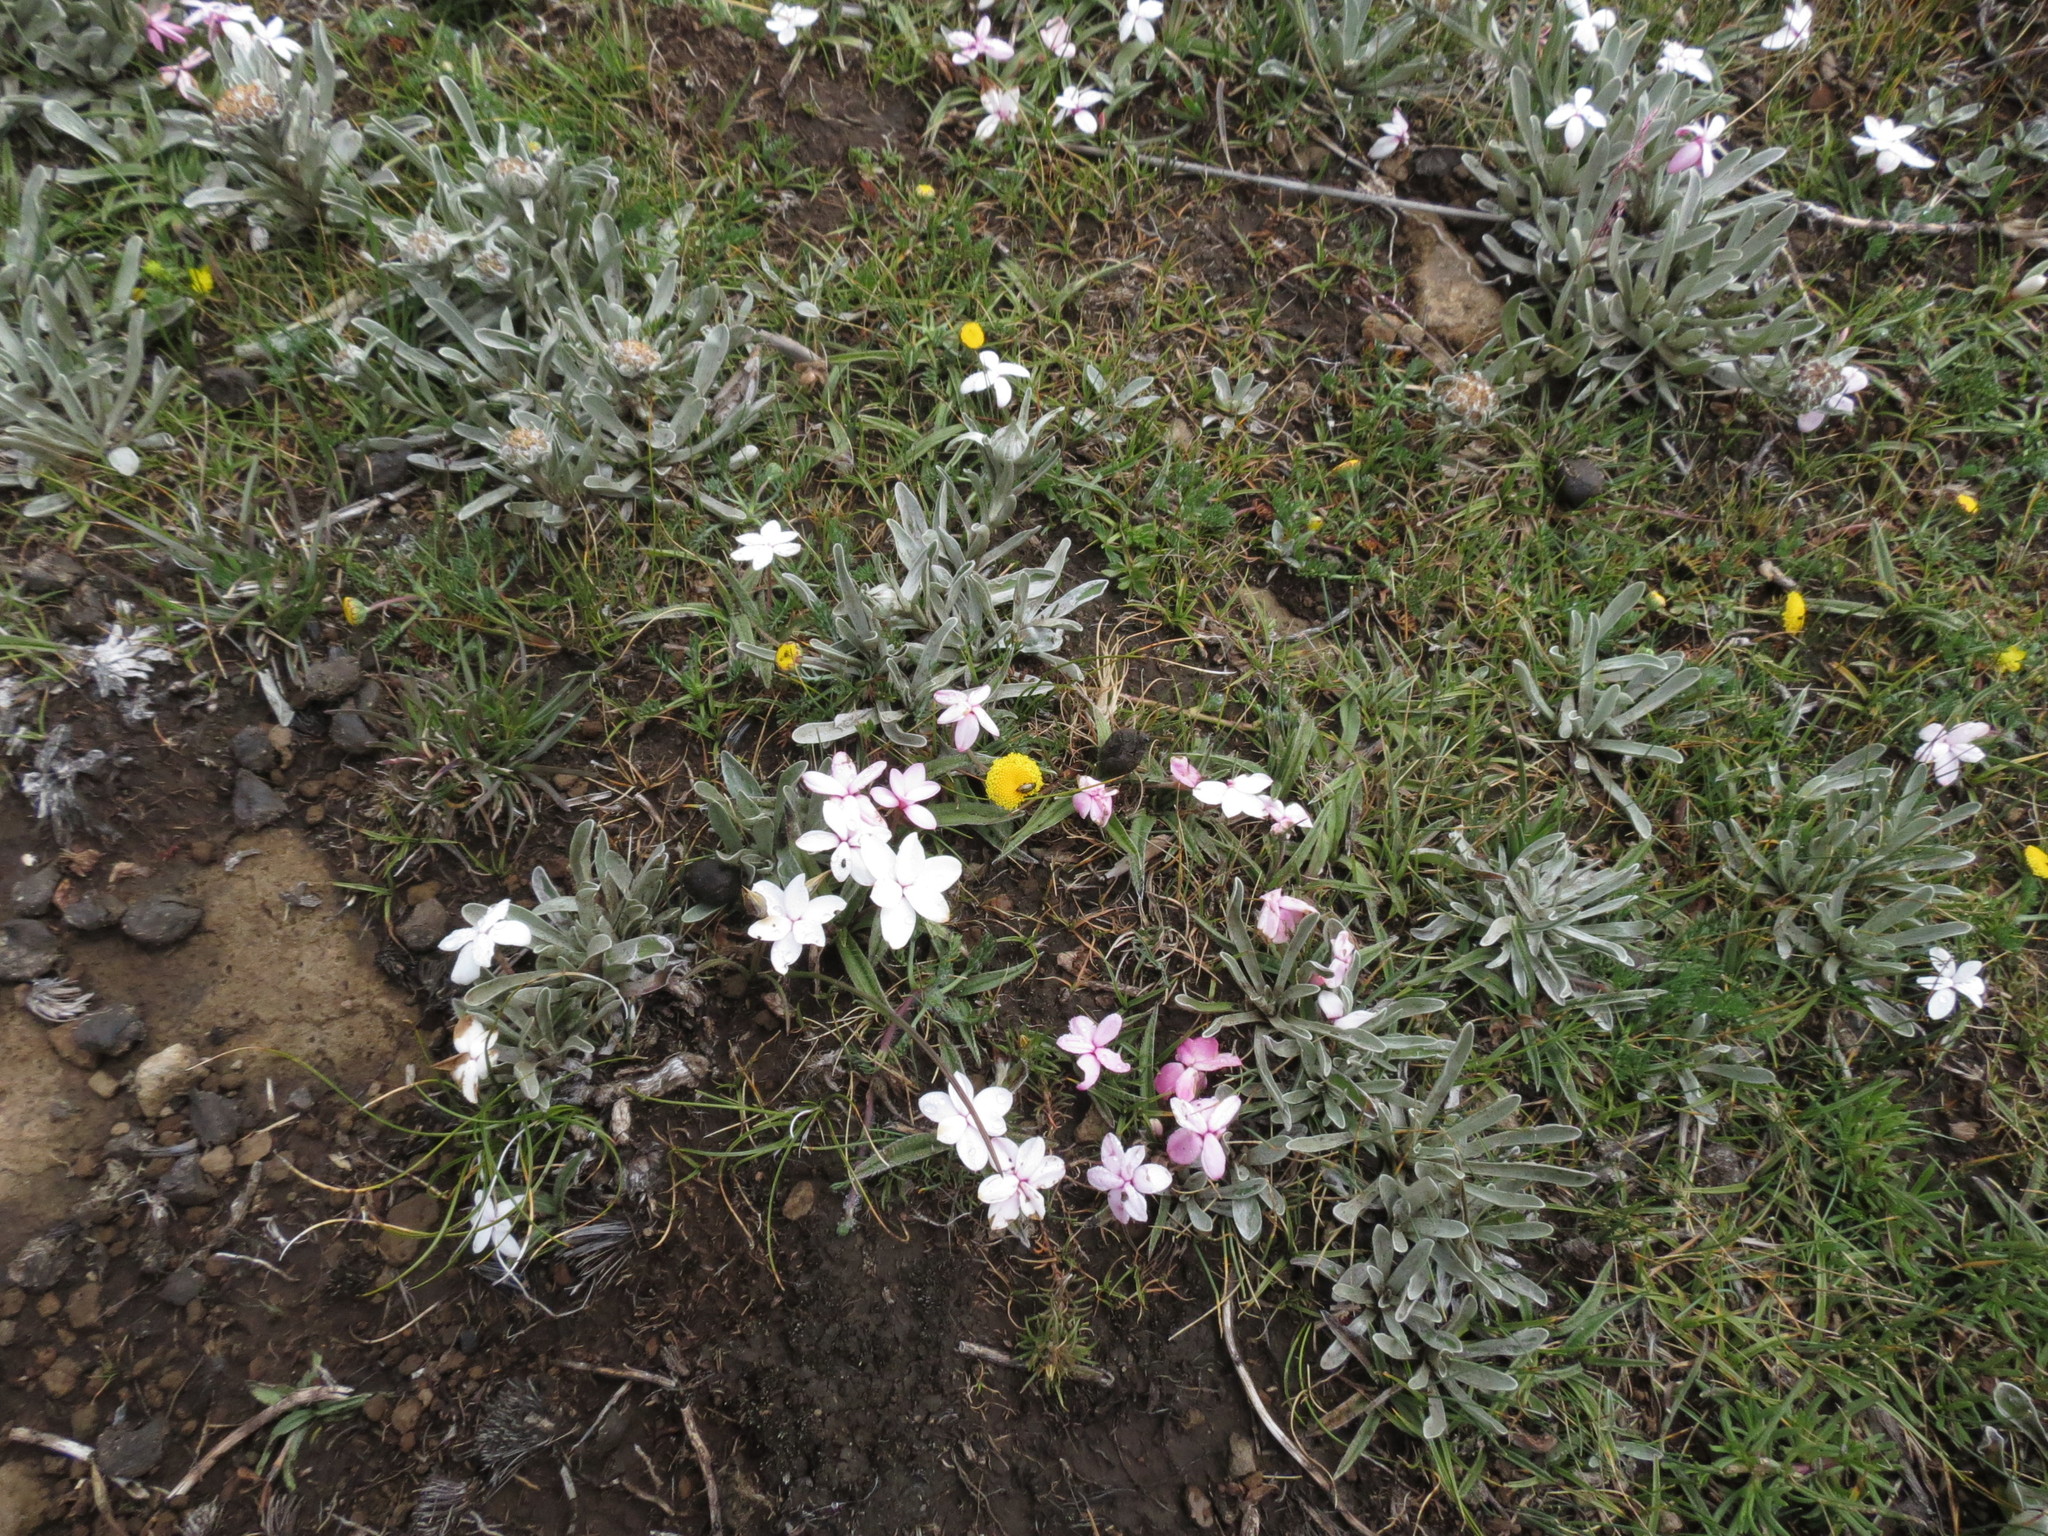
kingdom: Plantae
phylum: Tracheophyta
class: Liliopsida
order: Asparagales
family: Hypoxidaceae
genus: Hypoxis
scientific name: Hypoxis baurii
